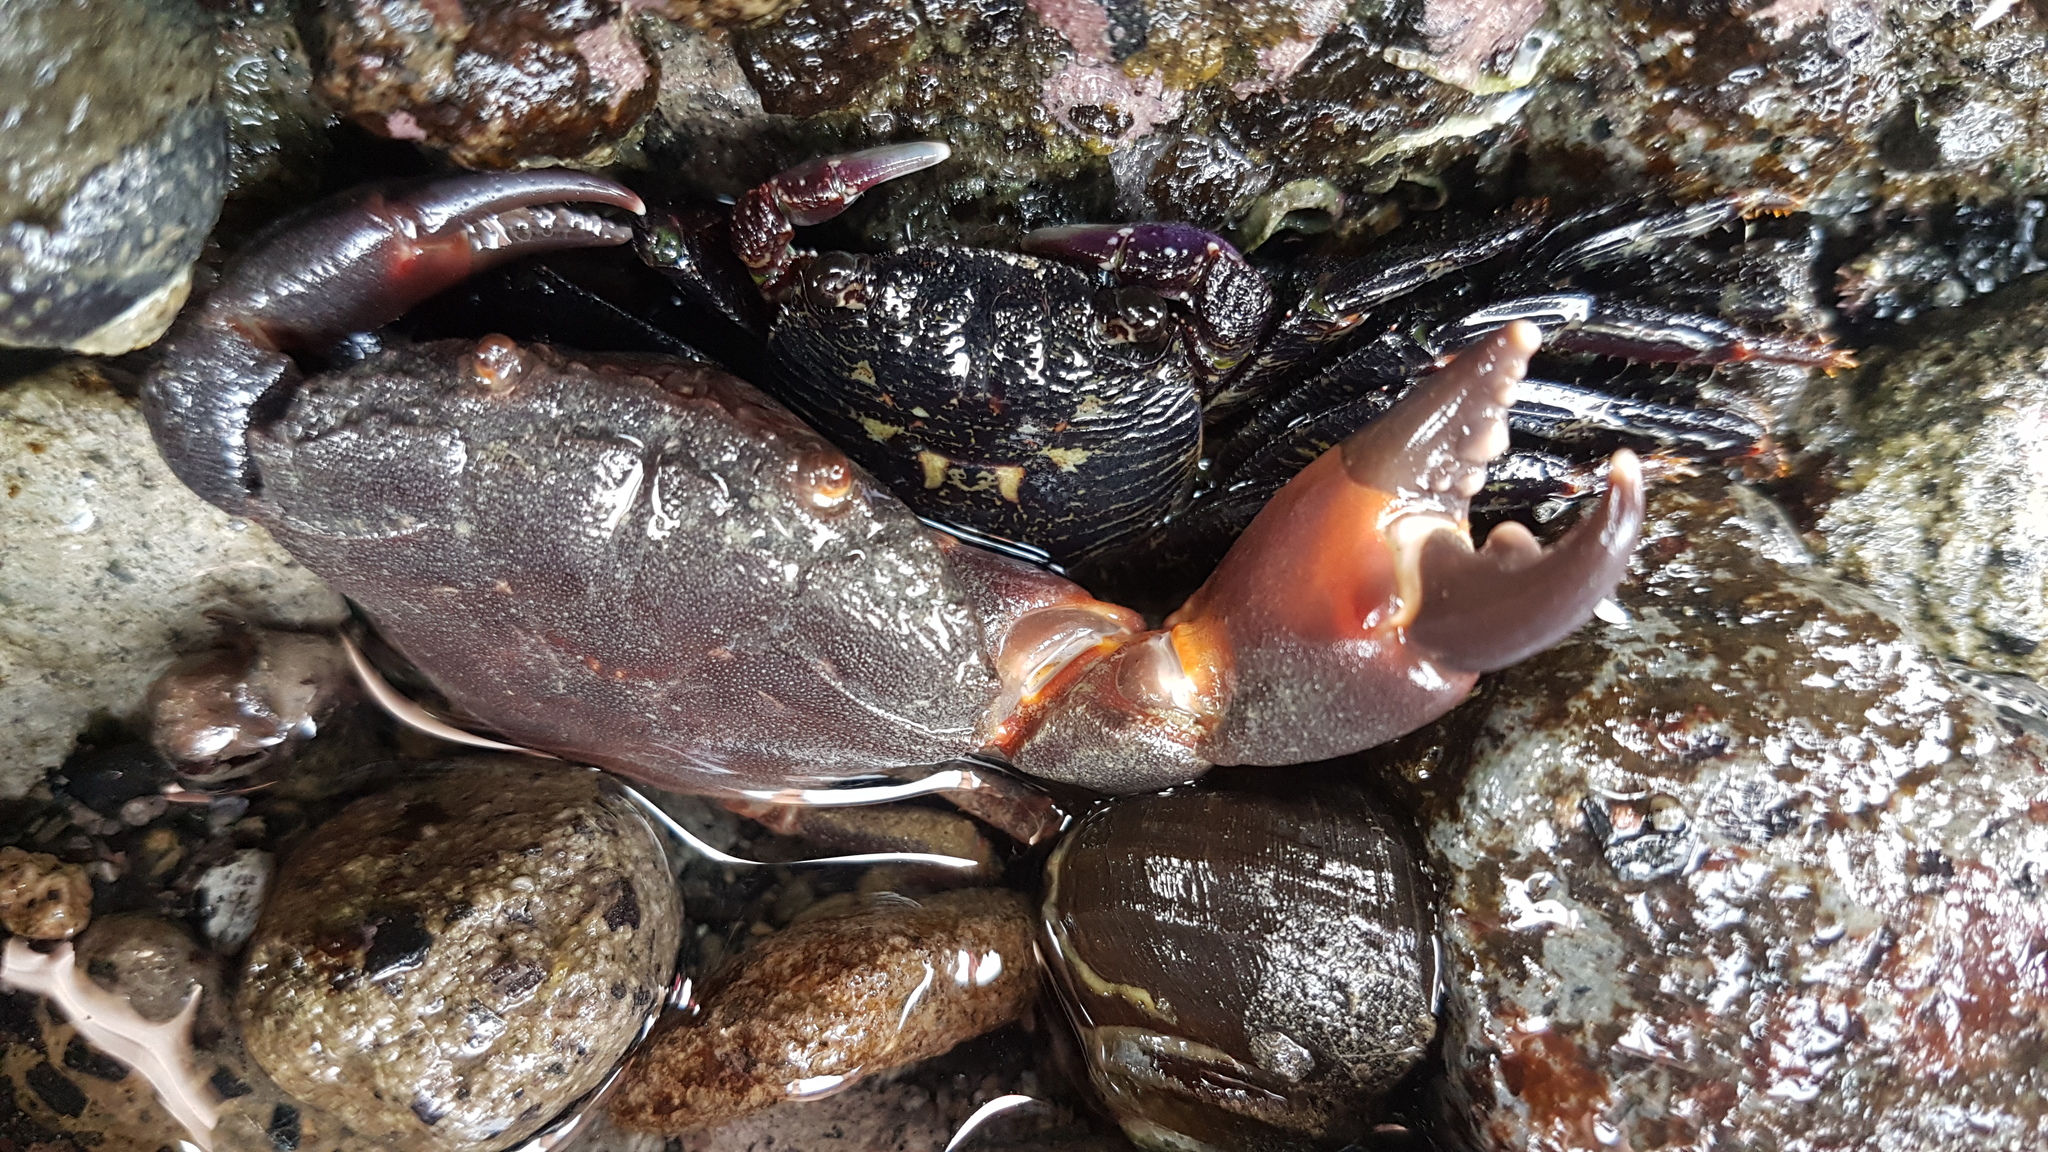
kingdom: Animalia
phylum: Arthropoda
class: Malacostraca
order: Decapoda
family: Grapsidae
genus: Leptograpsus
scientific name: Leptograpsus variegatus
